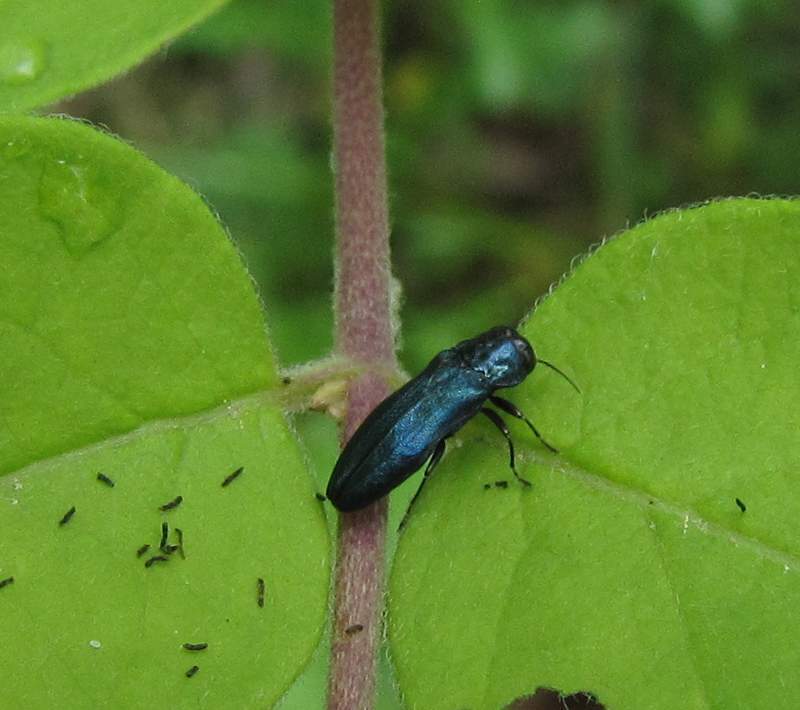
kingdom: Animalia
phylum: Arthropoda
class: Insecta
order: Coleoptera
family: Buprestidae
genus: Agrilus
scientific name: Agrilus cyanescens
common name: Bluish borer beetle
